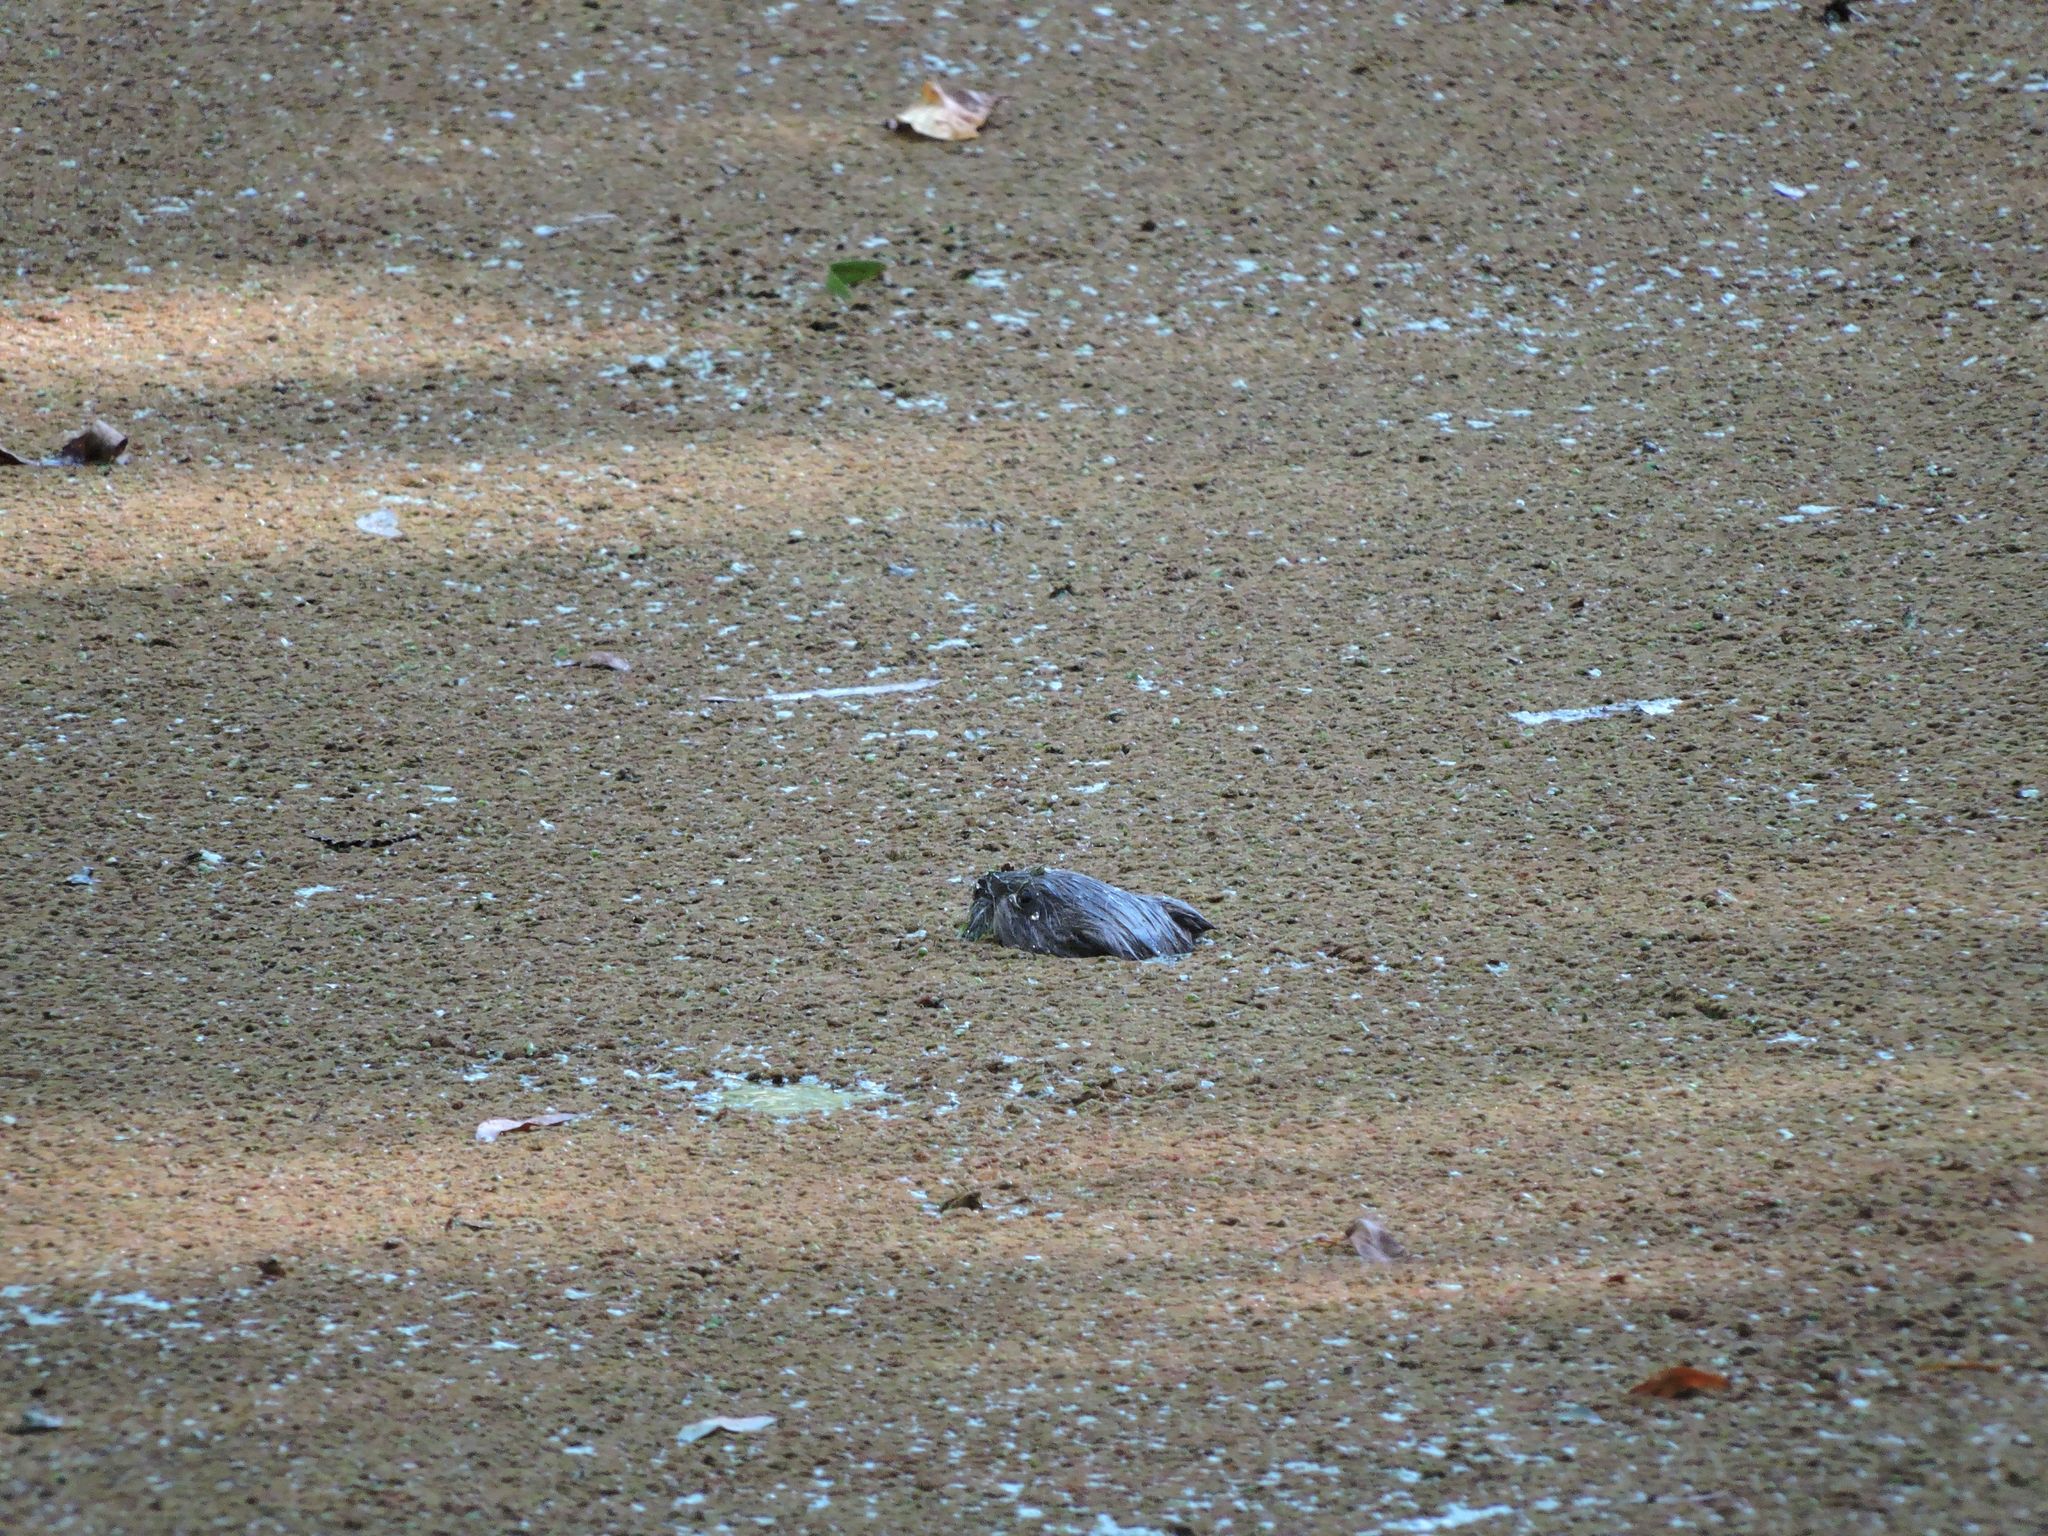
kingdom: Animalia
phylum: Chordata
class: Mammalia
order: Rodentia
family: Cricetidae
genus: Ondatra
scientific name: Ondatra zibethicus
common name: Muskrat
